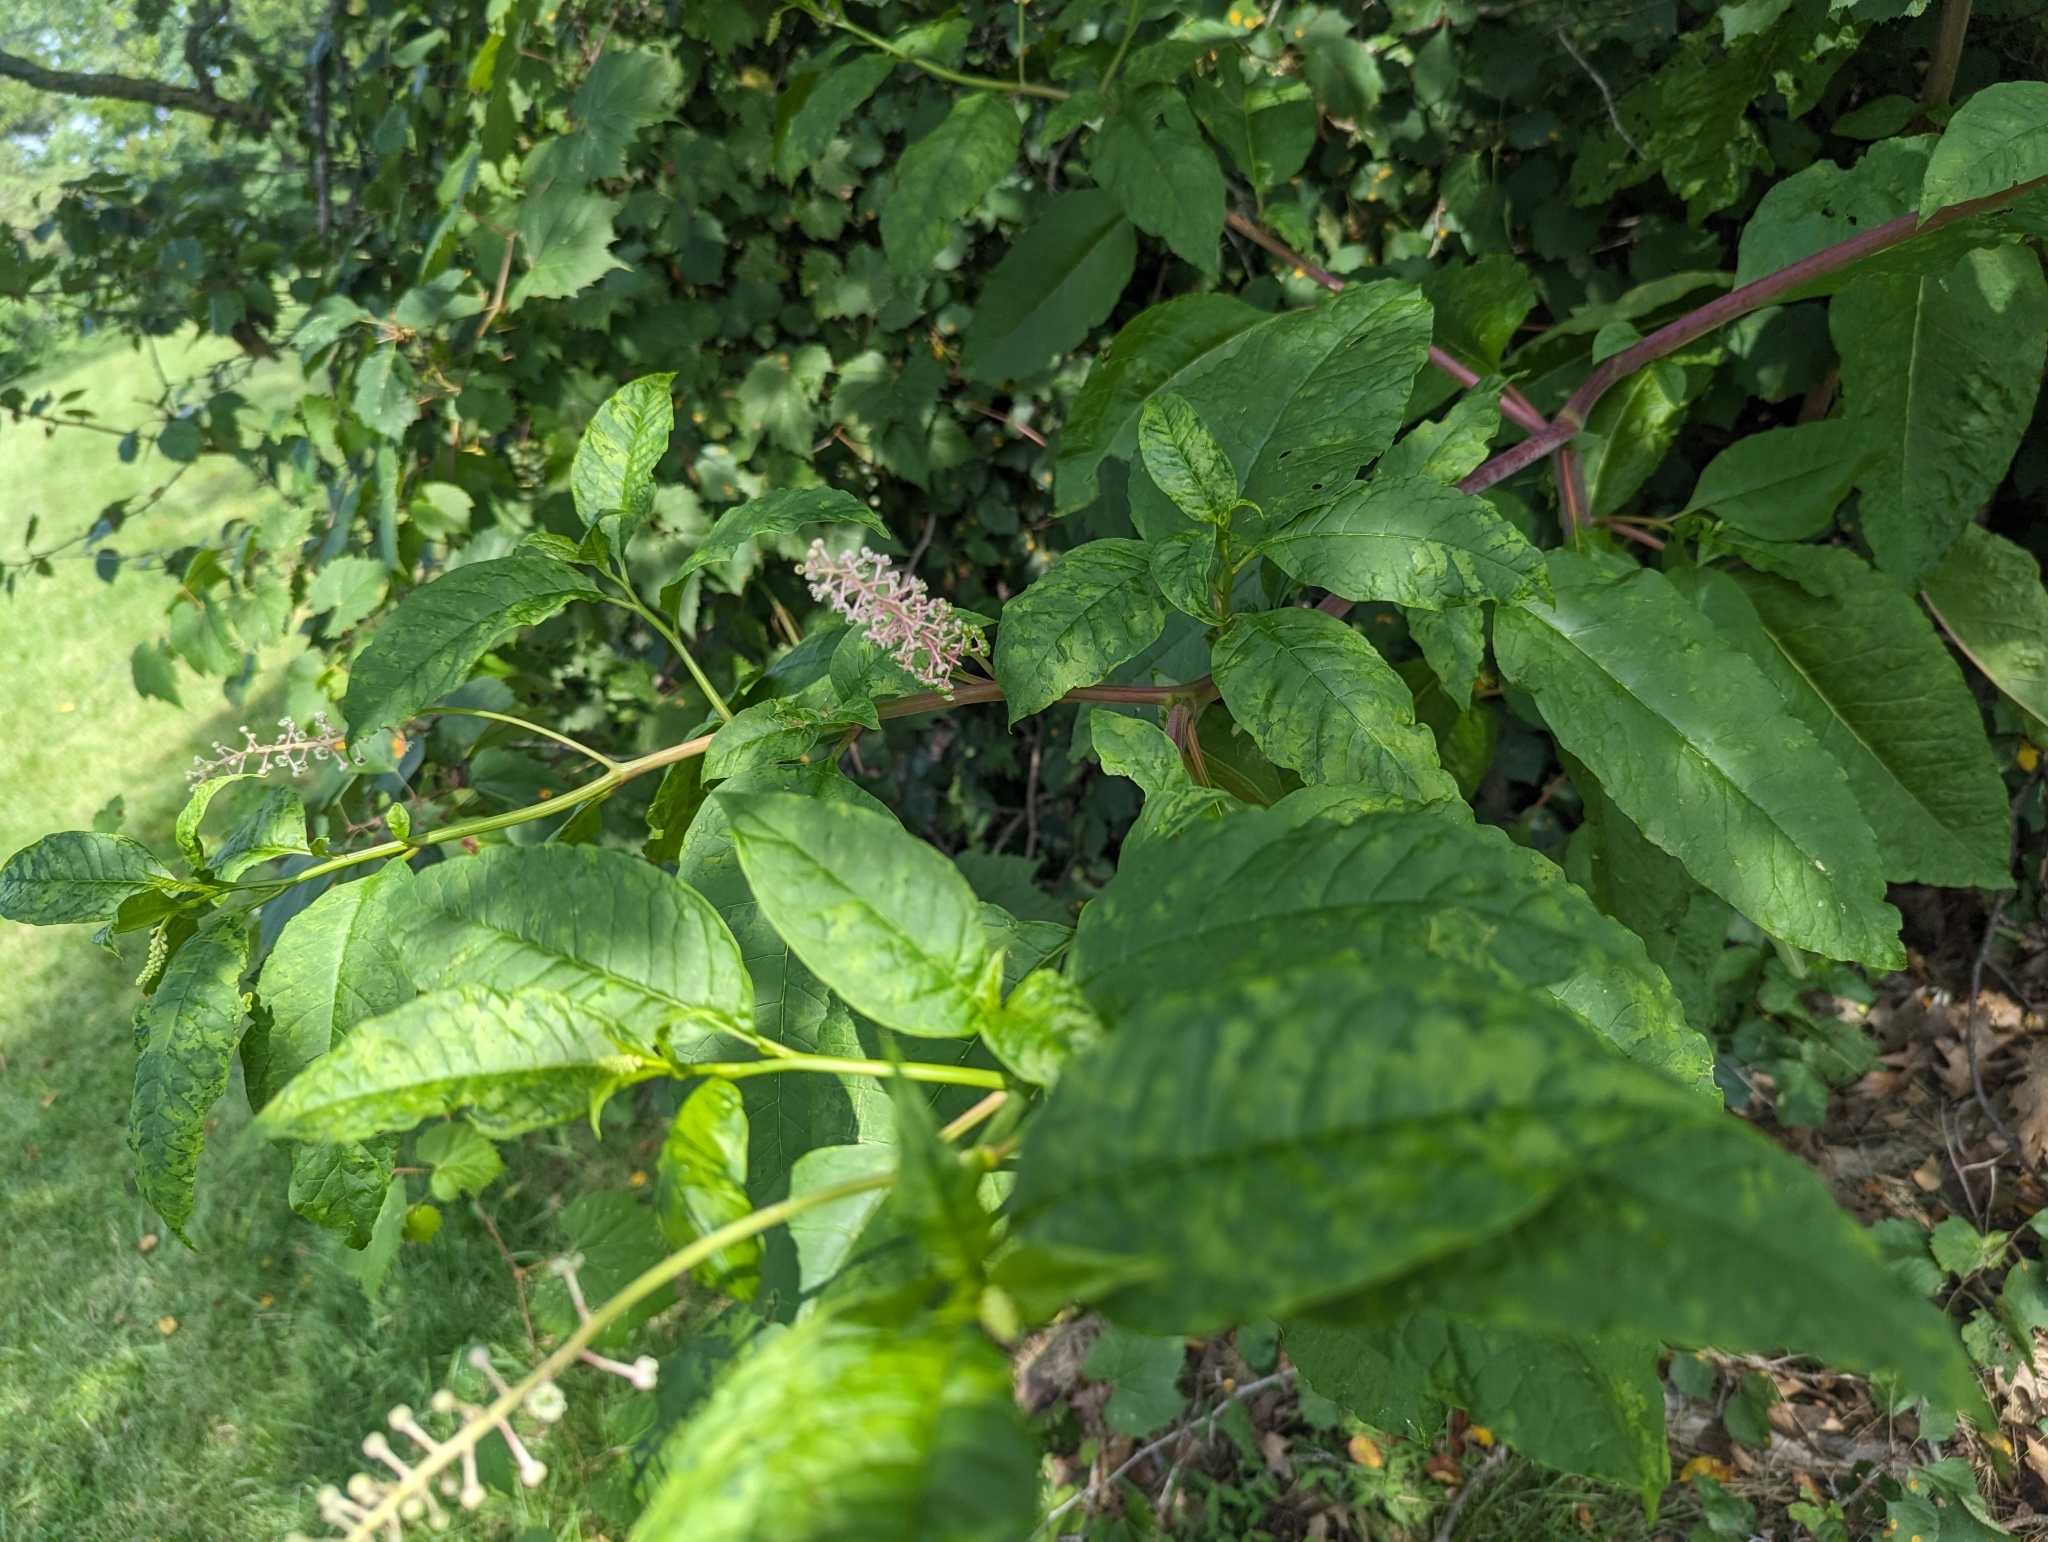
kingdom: Plantae
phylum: Tracheophyta
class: Magnoliopsida
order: Caryophyllales
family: Phytolaccaceae
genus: Phytolacca
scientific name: Phytolacca americana
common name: American pokeweed
